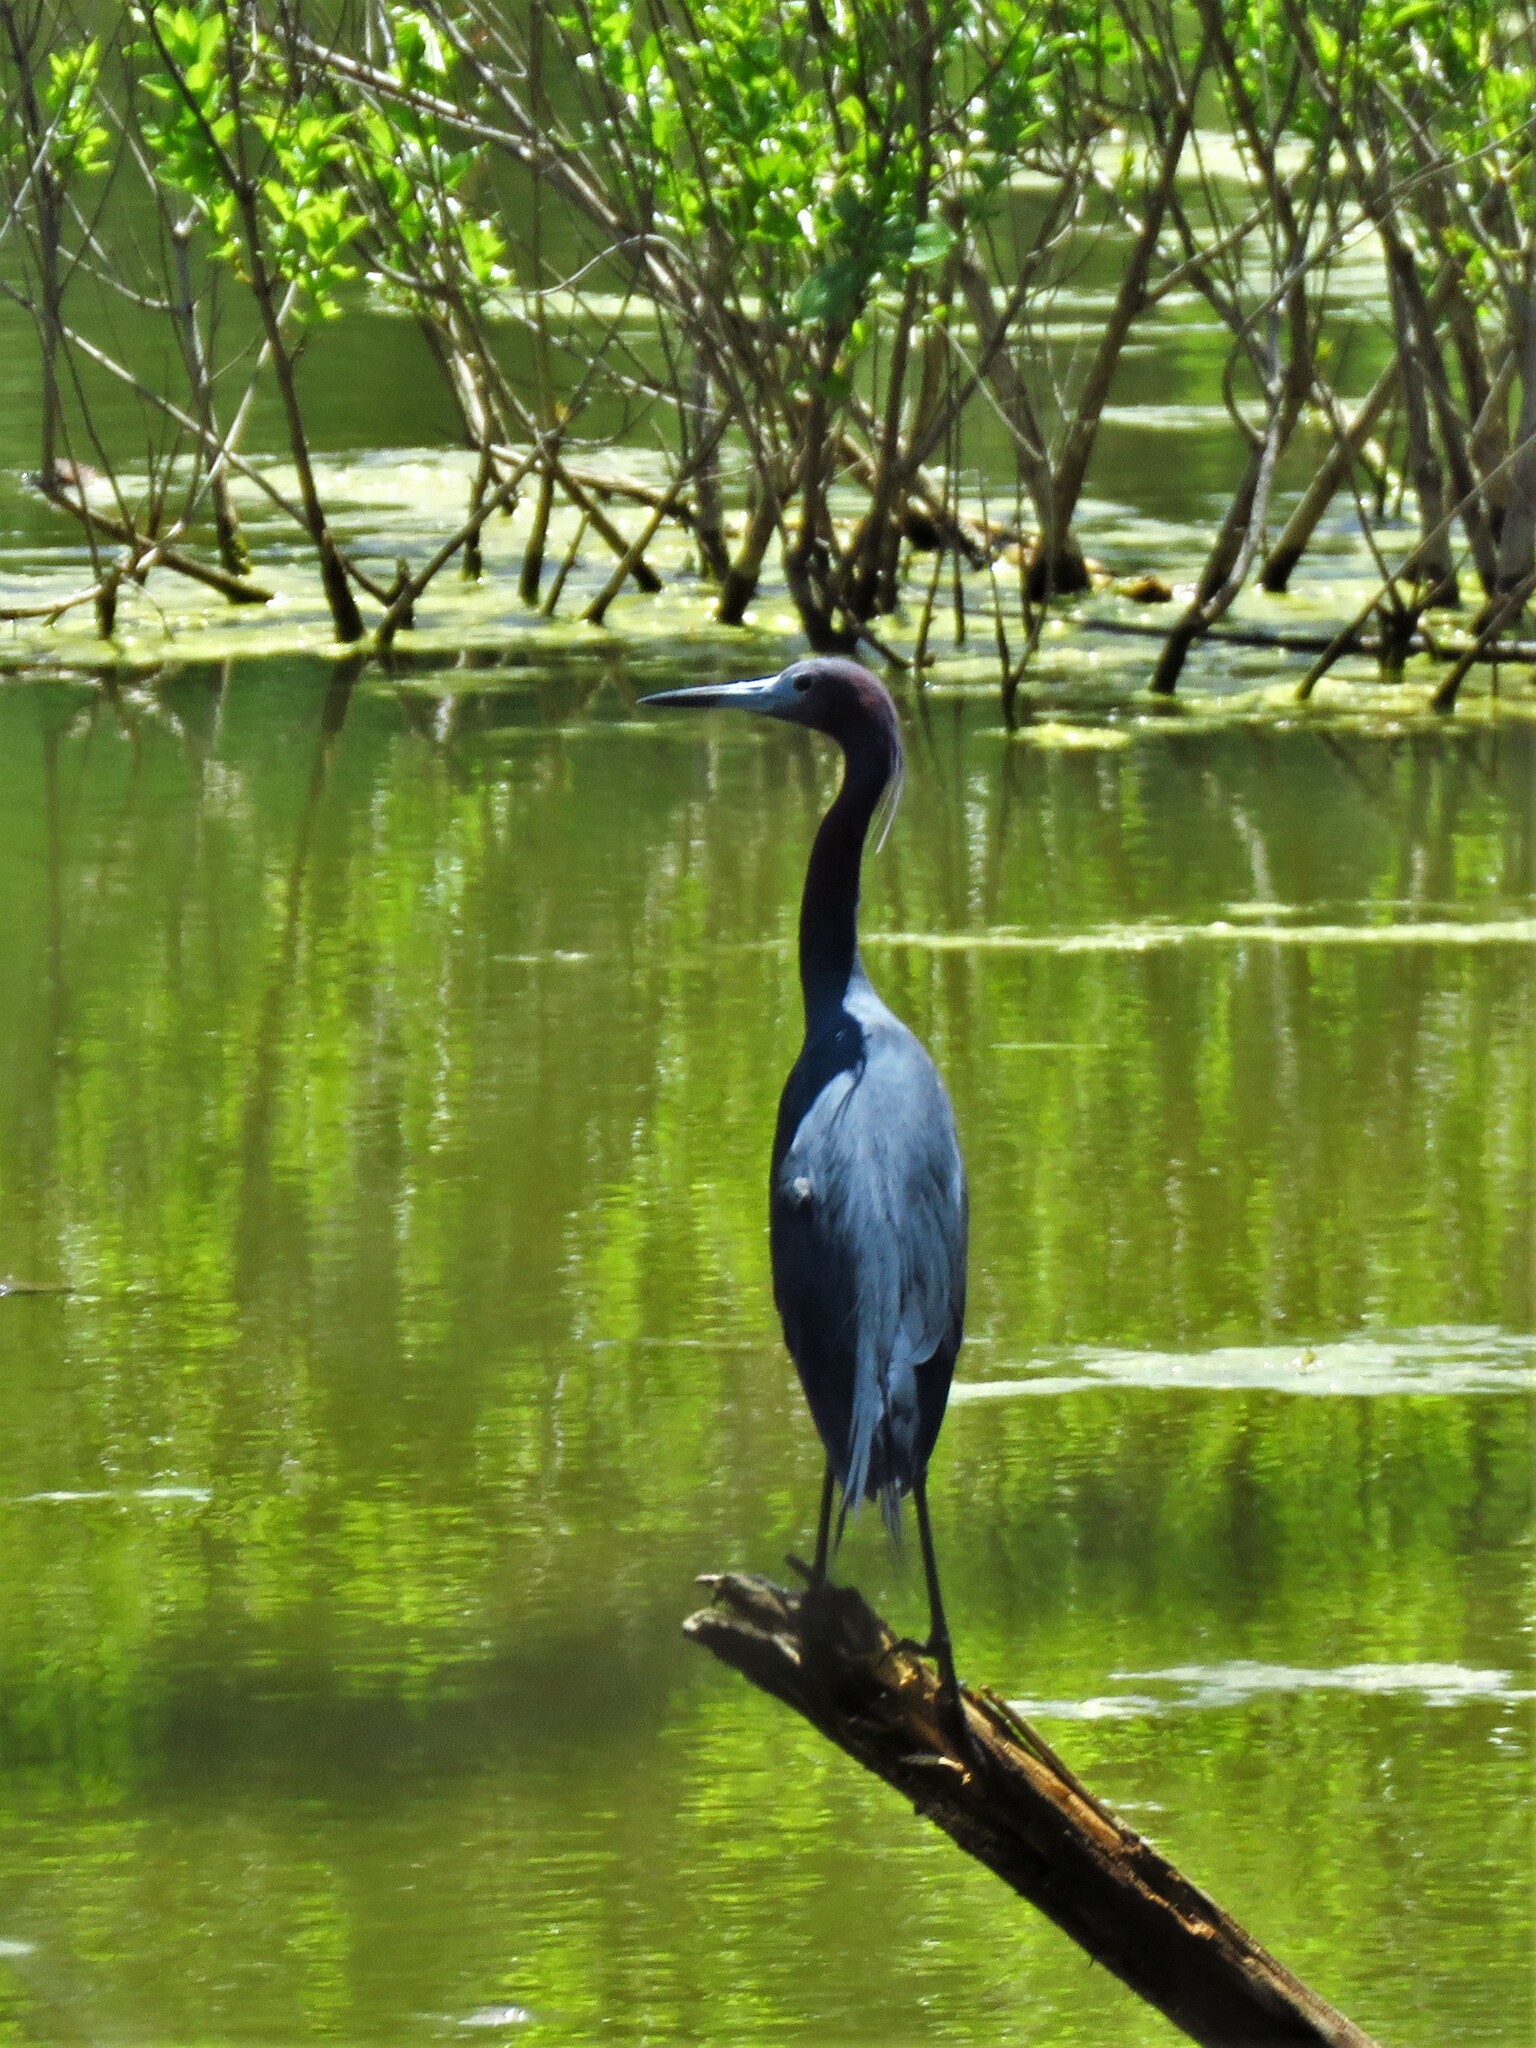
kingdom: Animalia
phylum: Chordata
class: Aves
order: Pelecaniformes
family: Ardeidae
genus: Egretta
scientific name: Egretta caerulea
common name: Little blue heron
